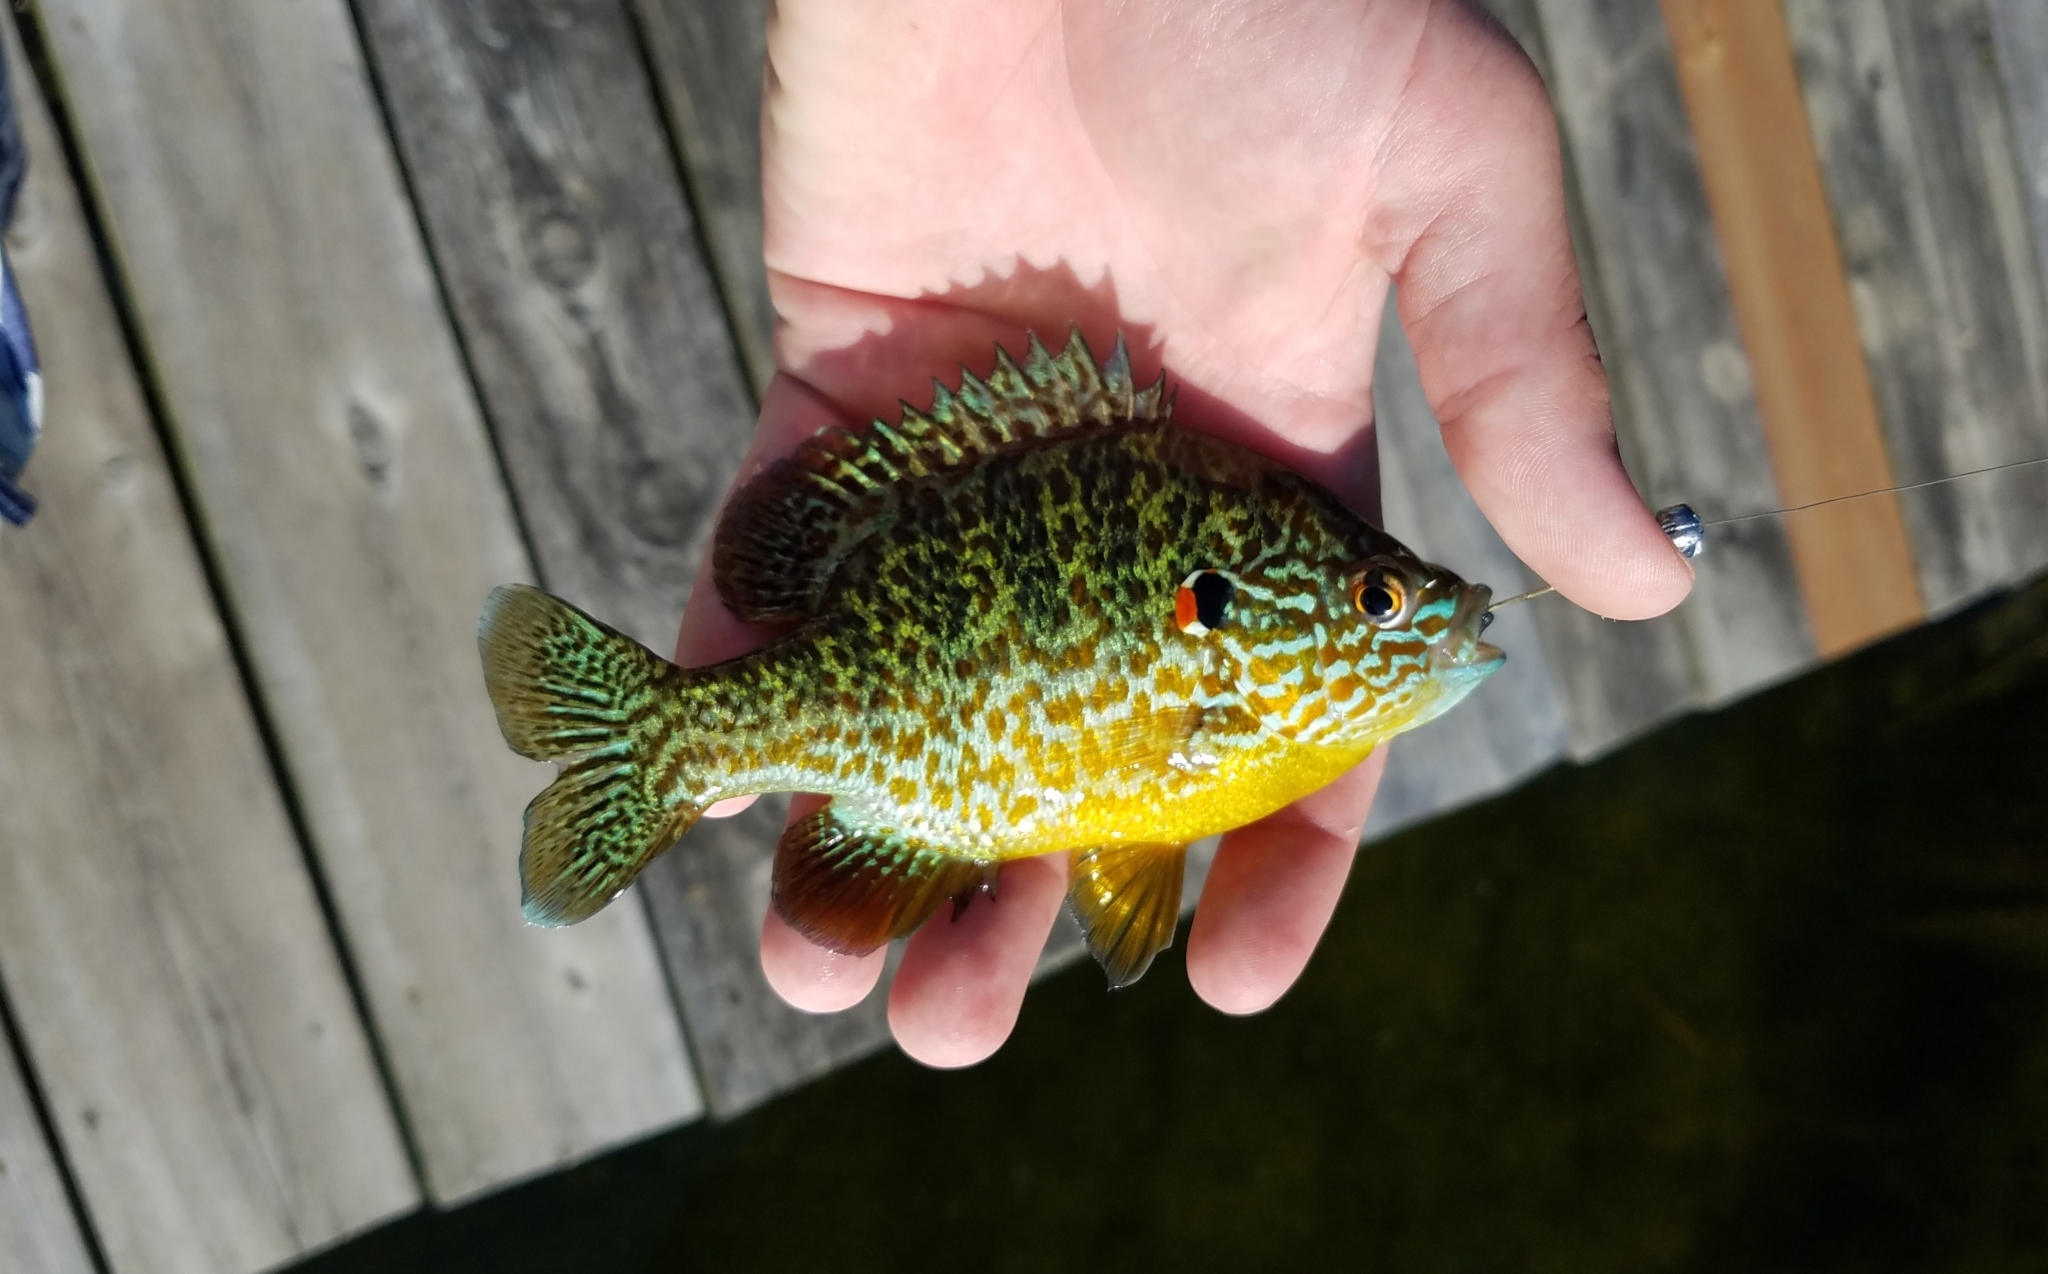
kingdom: Animalia
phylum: Chordata
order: Perciformes
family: Centrarchidae
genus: Lepomis
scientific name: Lepomis gibbosus
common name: Pumpkinseed
